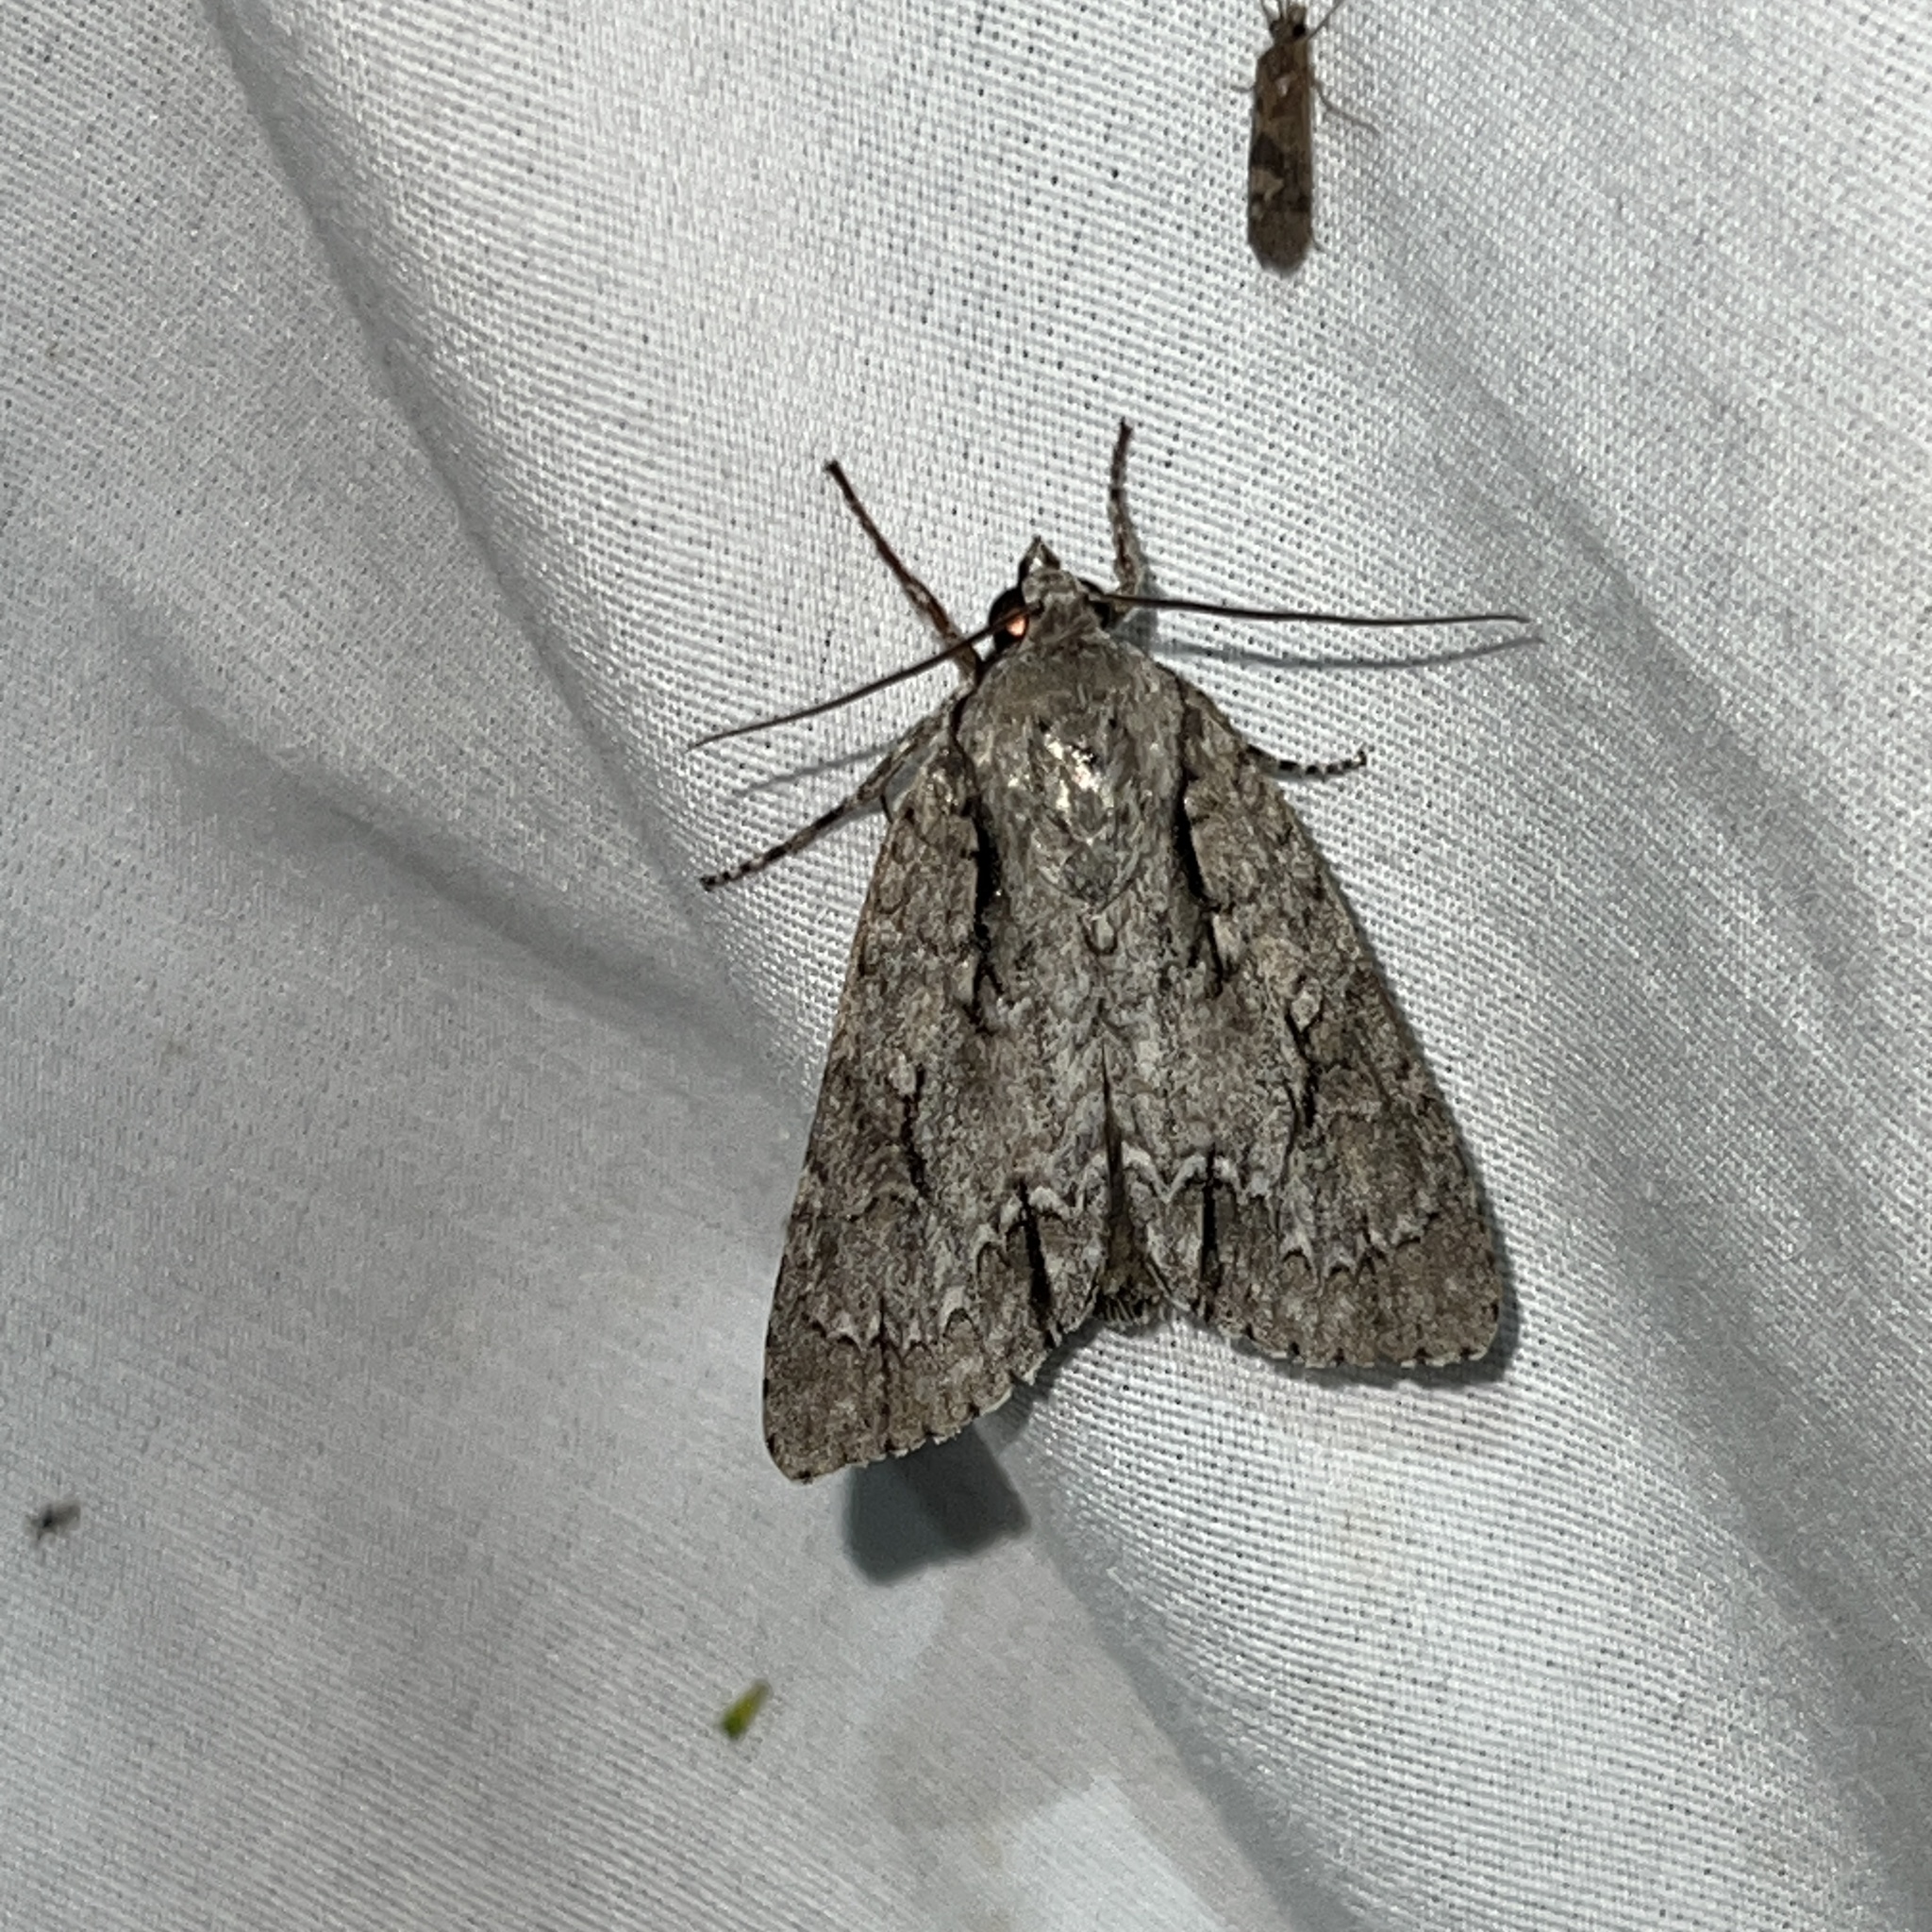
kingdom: Animalia
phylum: Arthropoda
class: Insecta
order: Lepidoptera
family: Noctuidae
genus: Acronicta
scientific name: Acronicta hasta
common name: Cherry dagger
